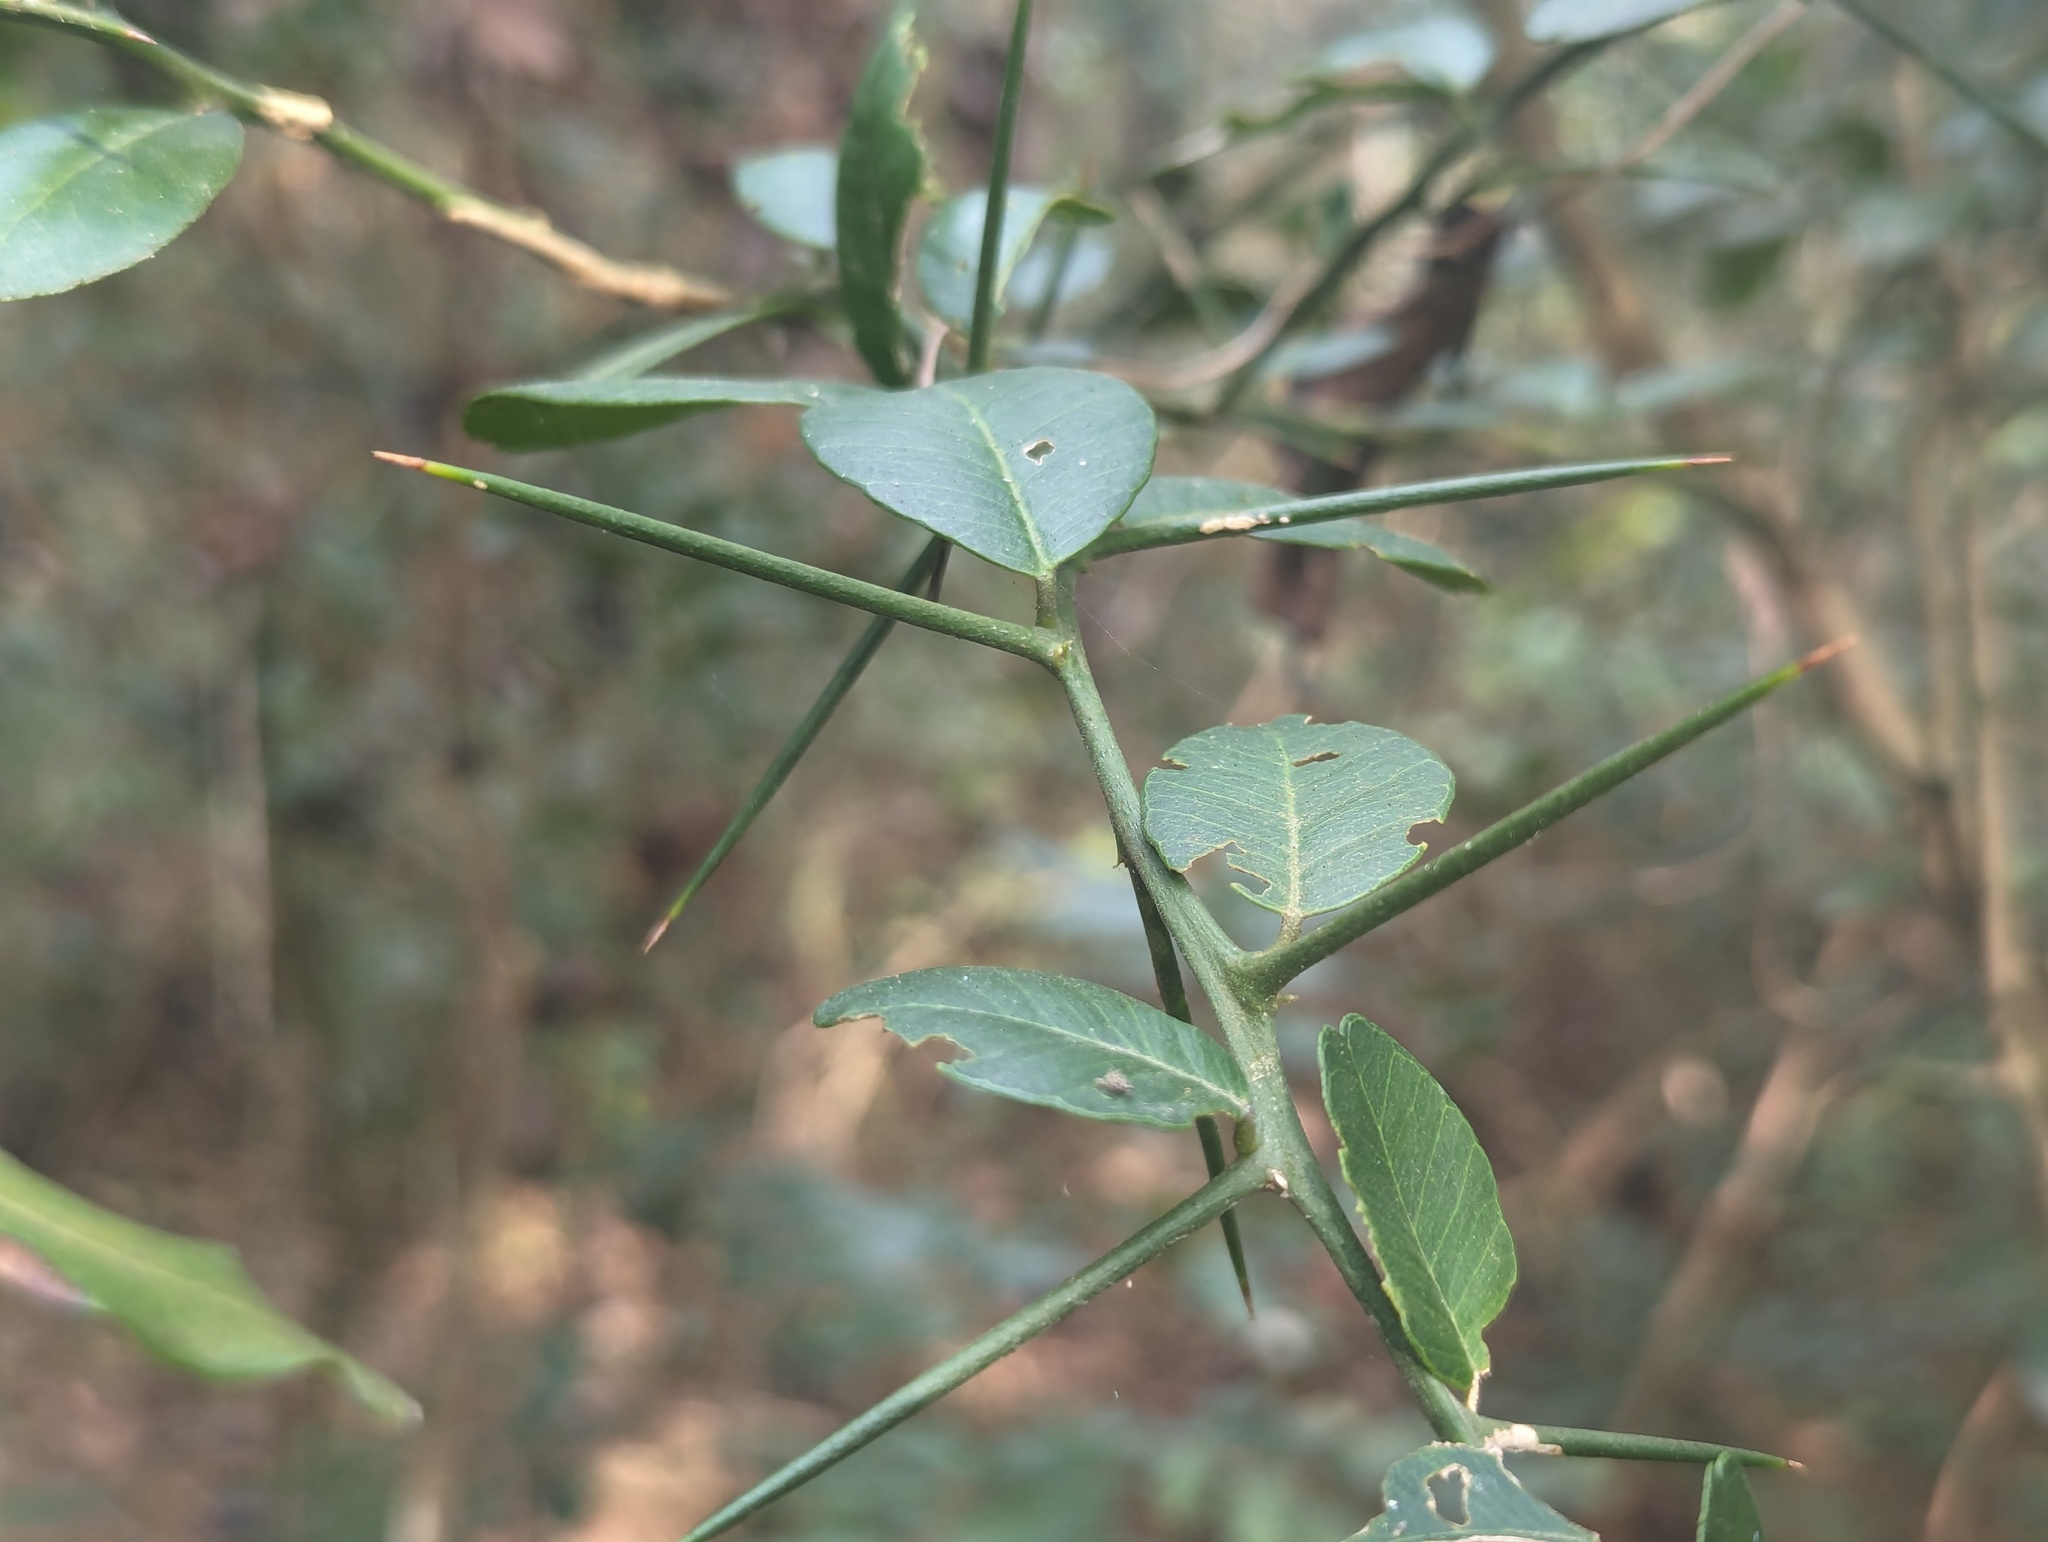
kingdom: Plantae
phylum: Tracheophyta
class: Magnoliopsida
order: Sapindales
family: Rutaceae
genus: Atalantia
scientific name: Atalantia buxifolia
